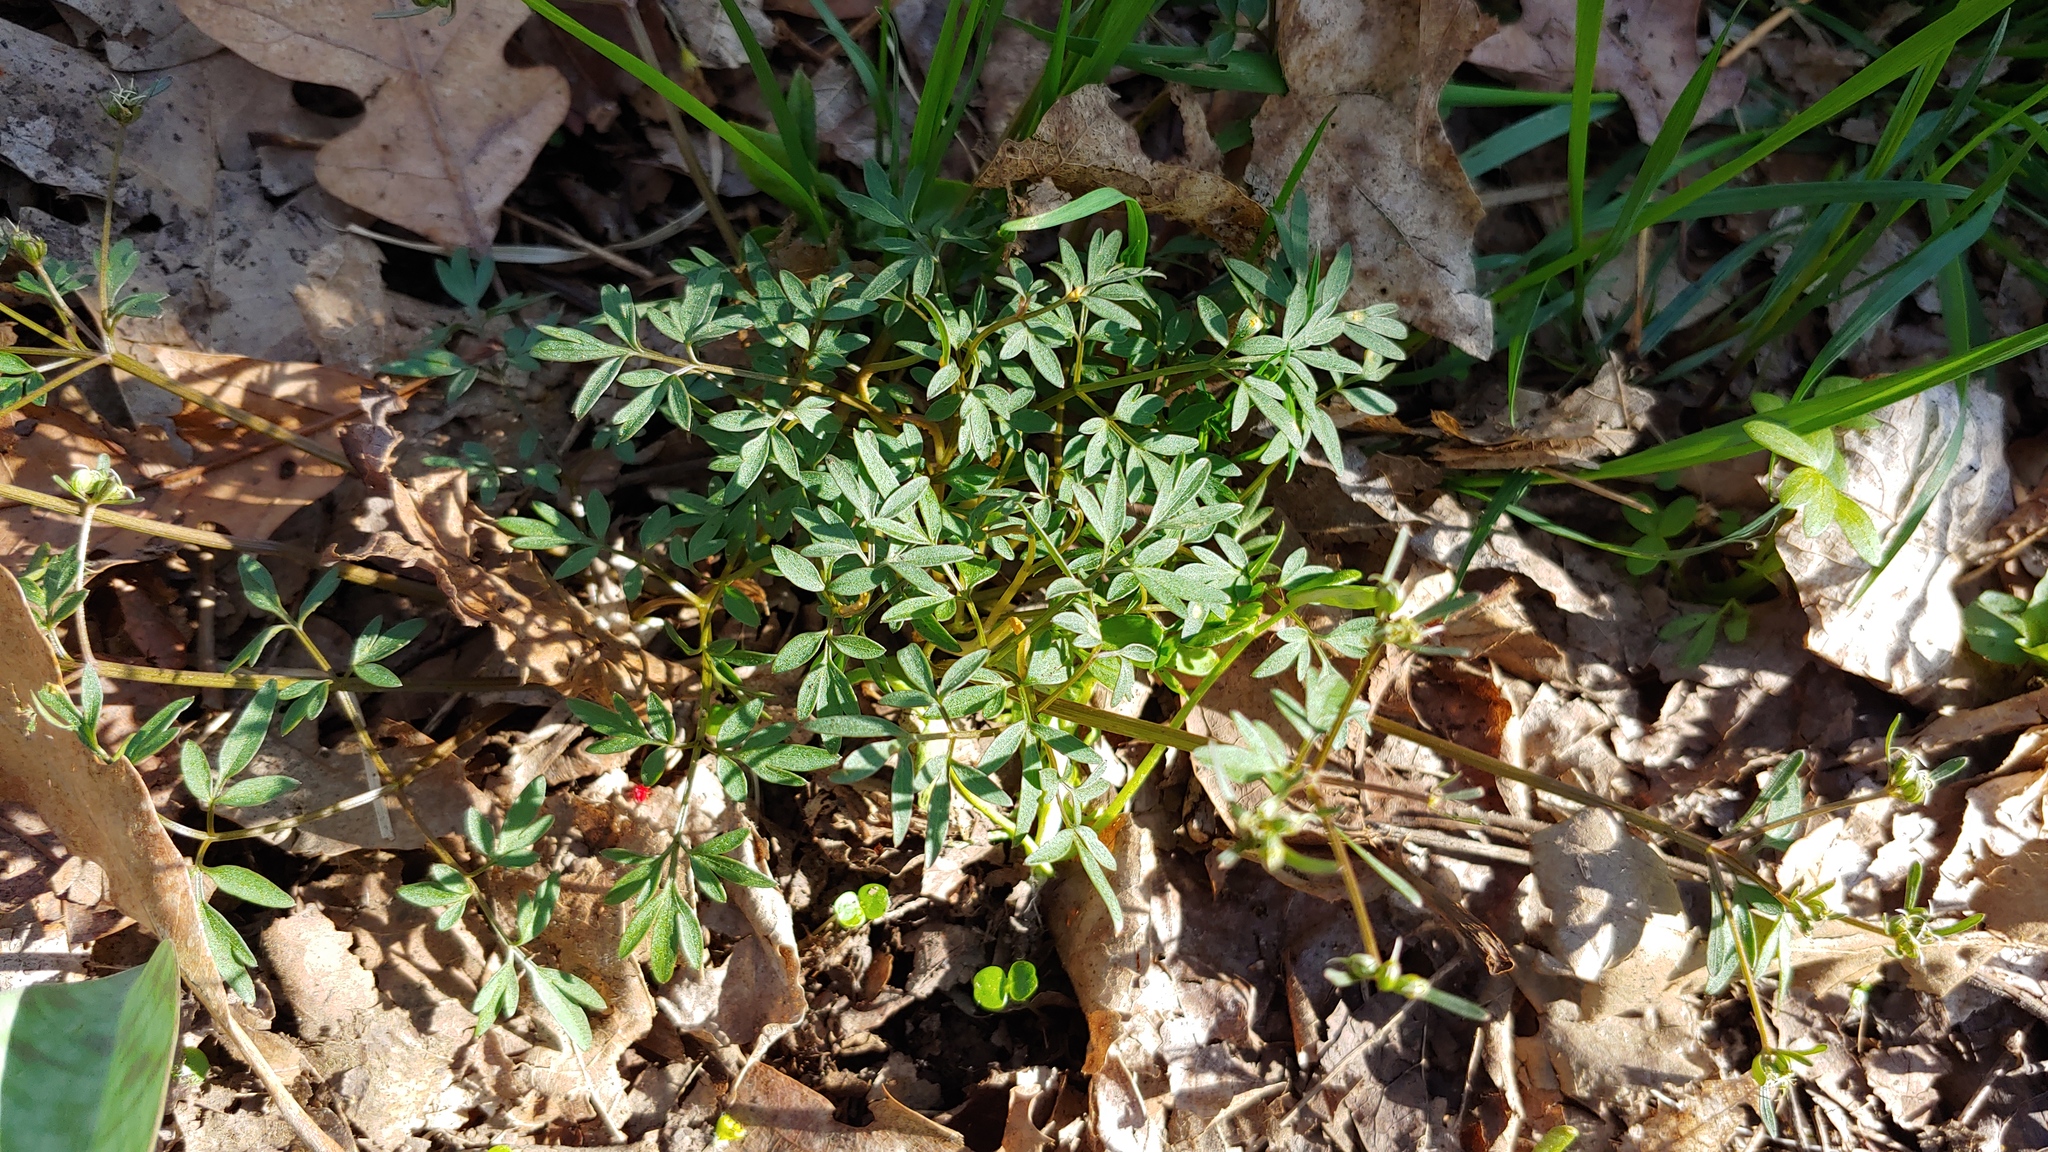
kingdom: Plantae
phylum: Tracheophyta
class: Magnoliopsida
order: Apiales
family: Apiaceae
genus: Erigenia
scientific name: Erigenia bulbosa
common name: Pepper-and-salt
